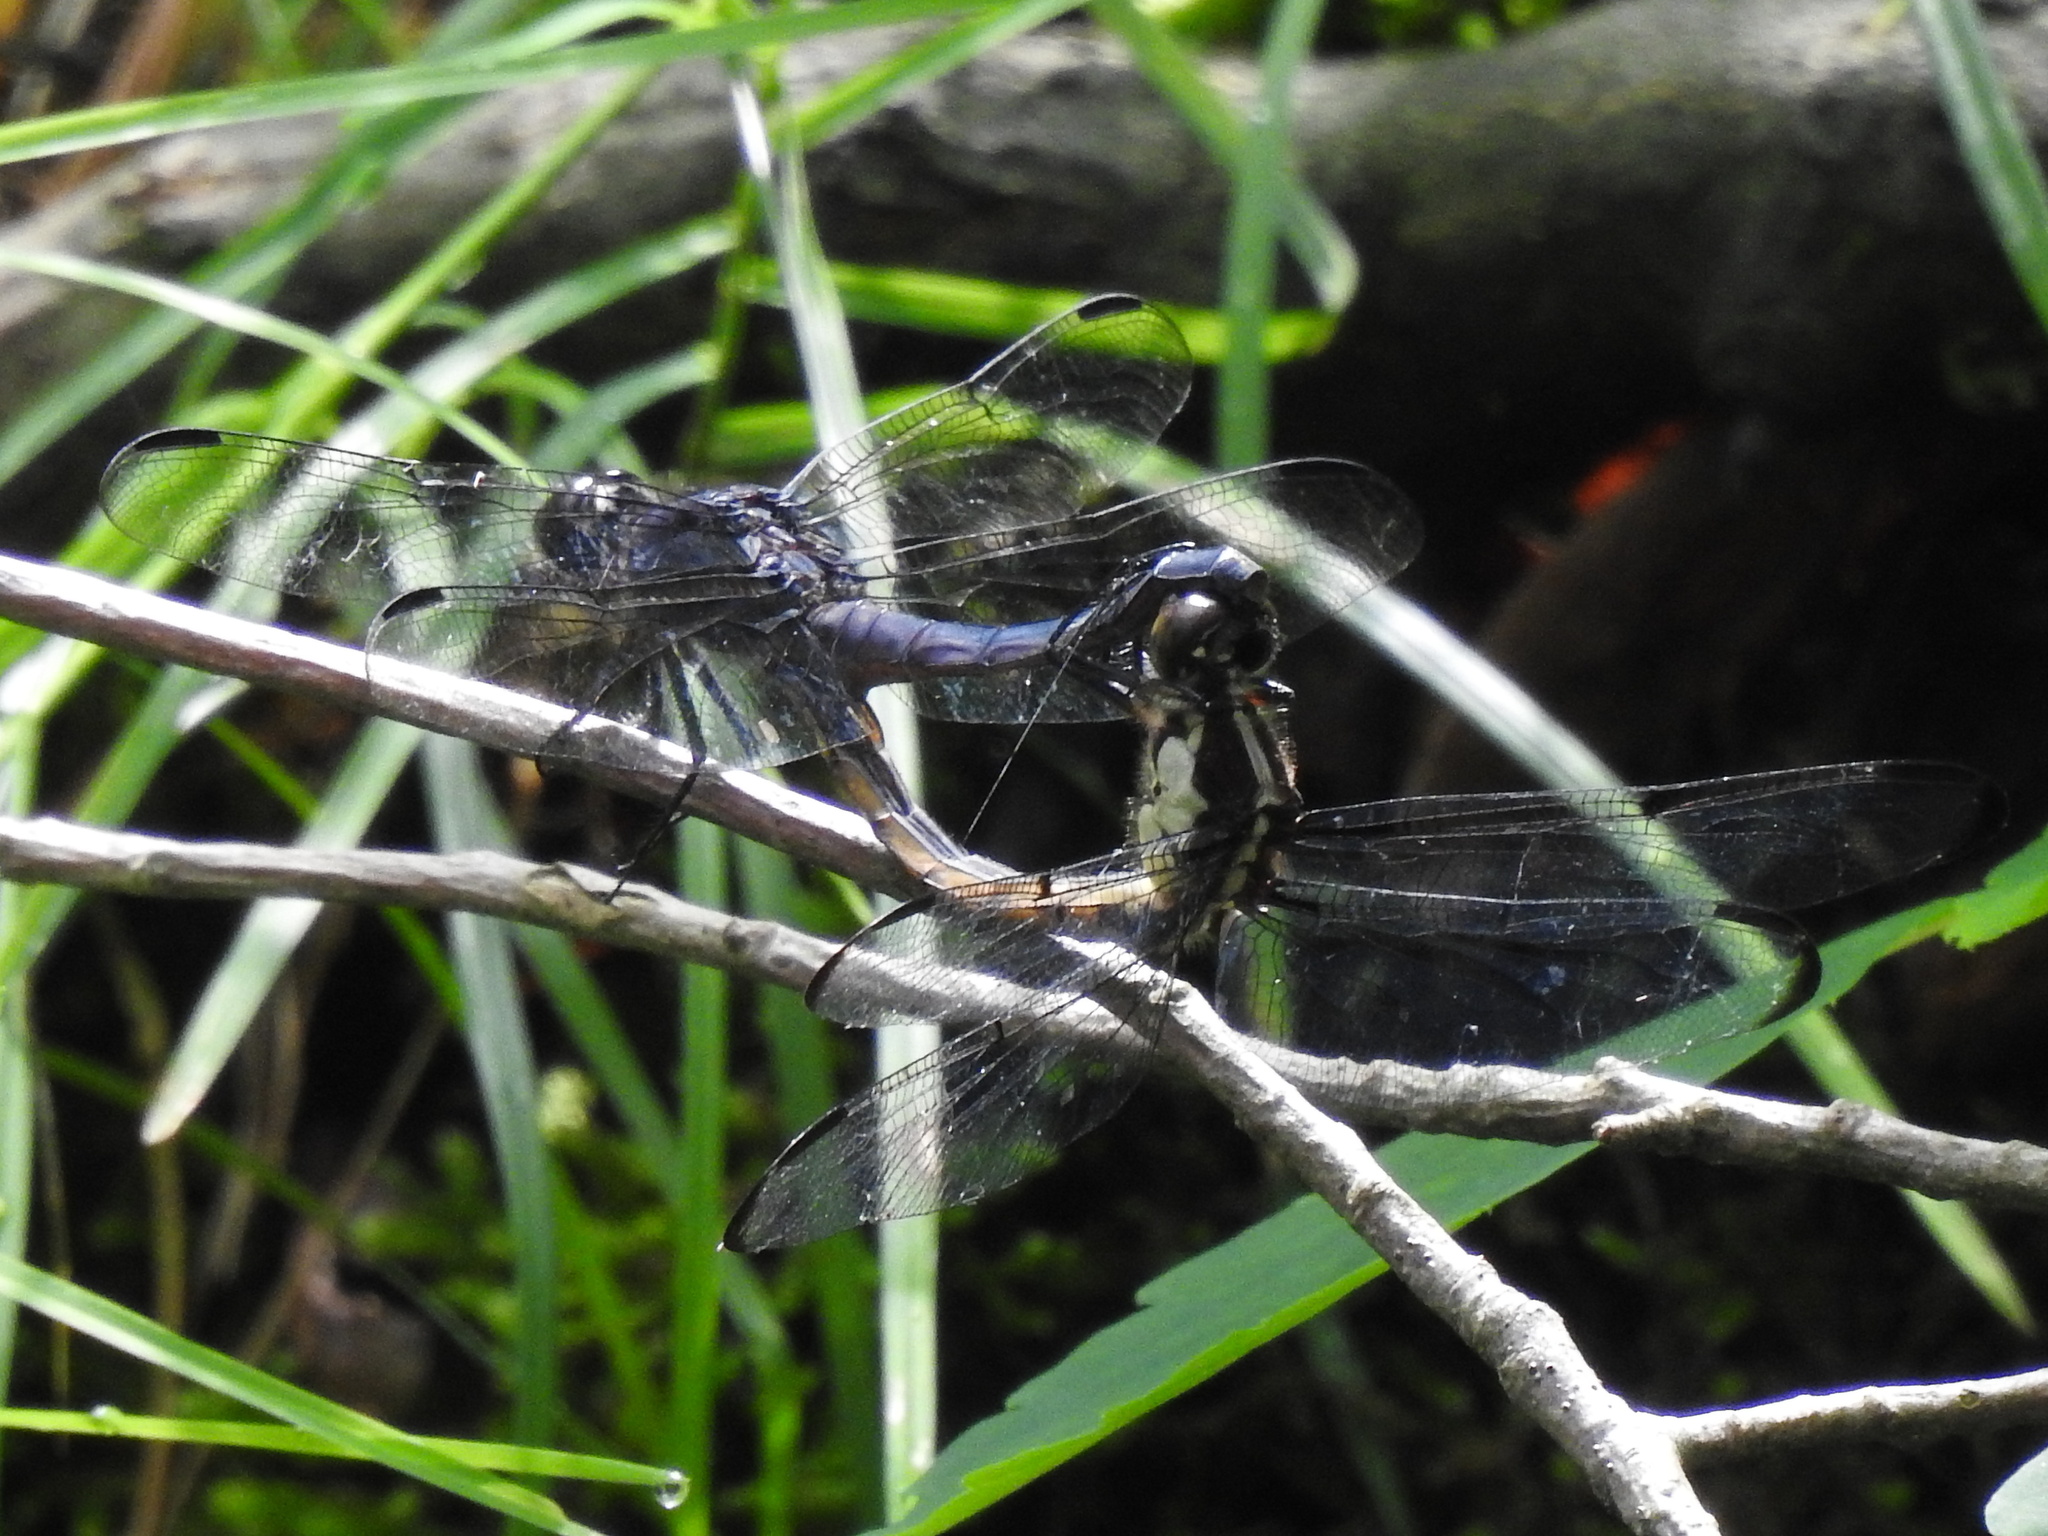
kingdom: Animalia
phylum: Arthropoda
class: Insecta
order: Odonata
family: Libellulidae
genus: Libellula
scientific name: Libellula incesta
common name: Slaty skimmer
